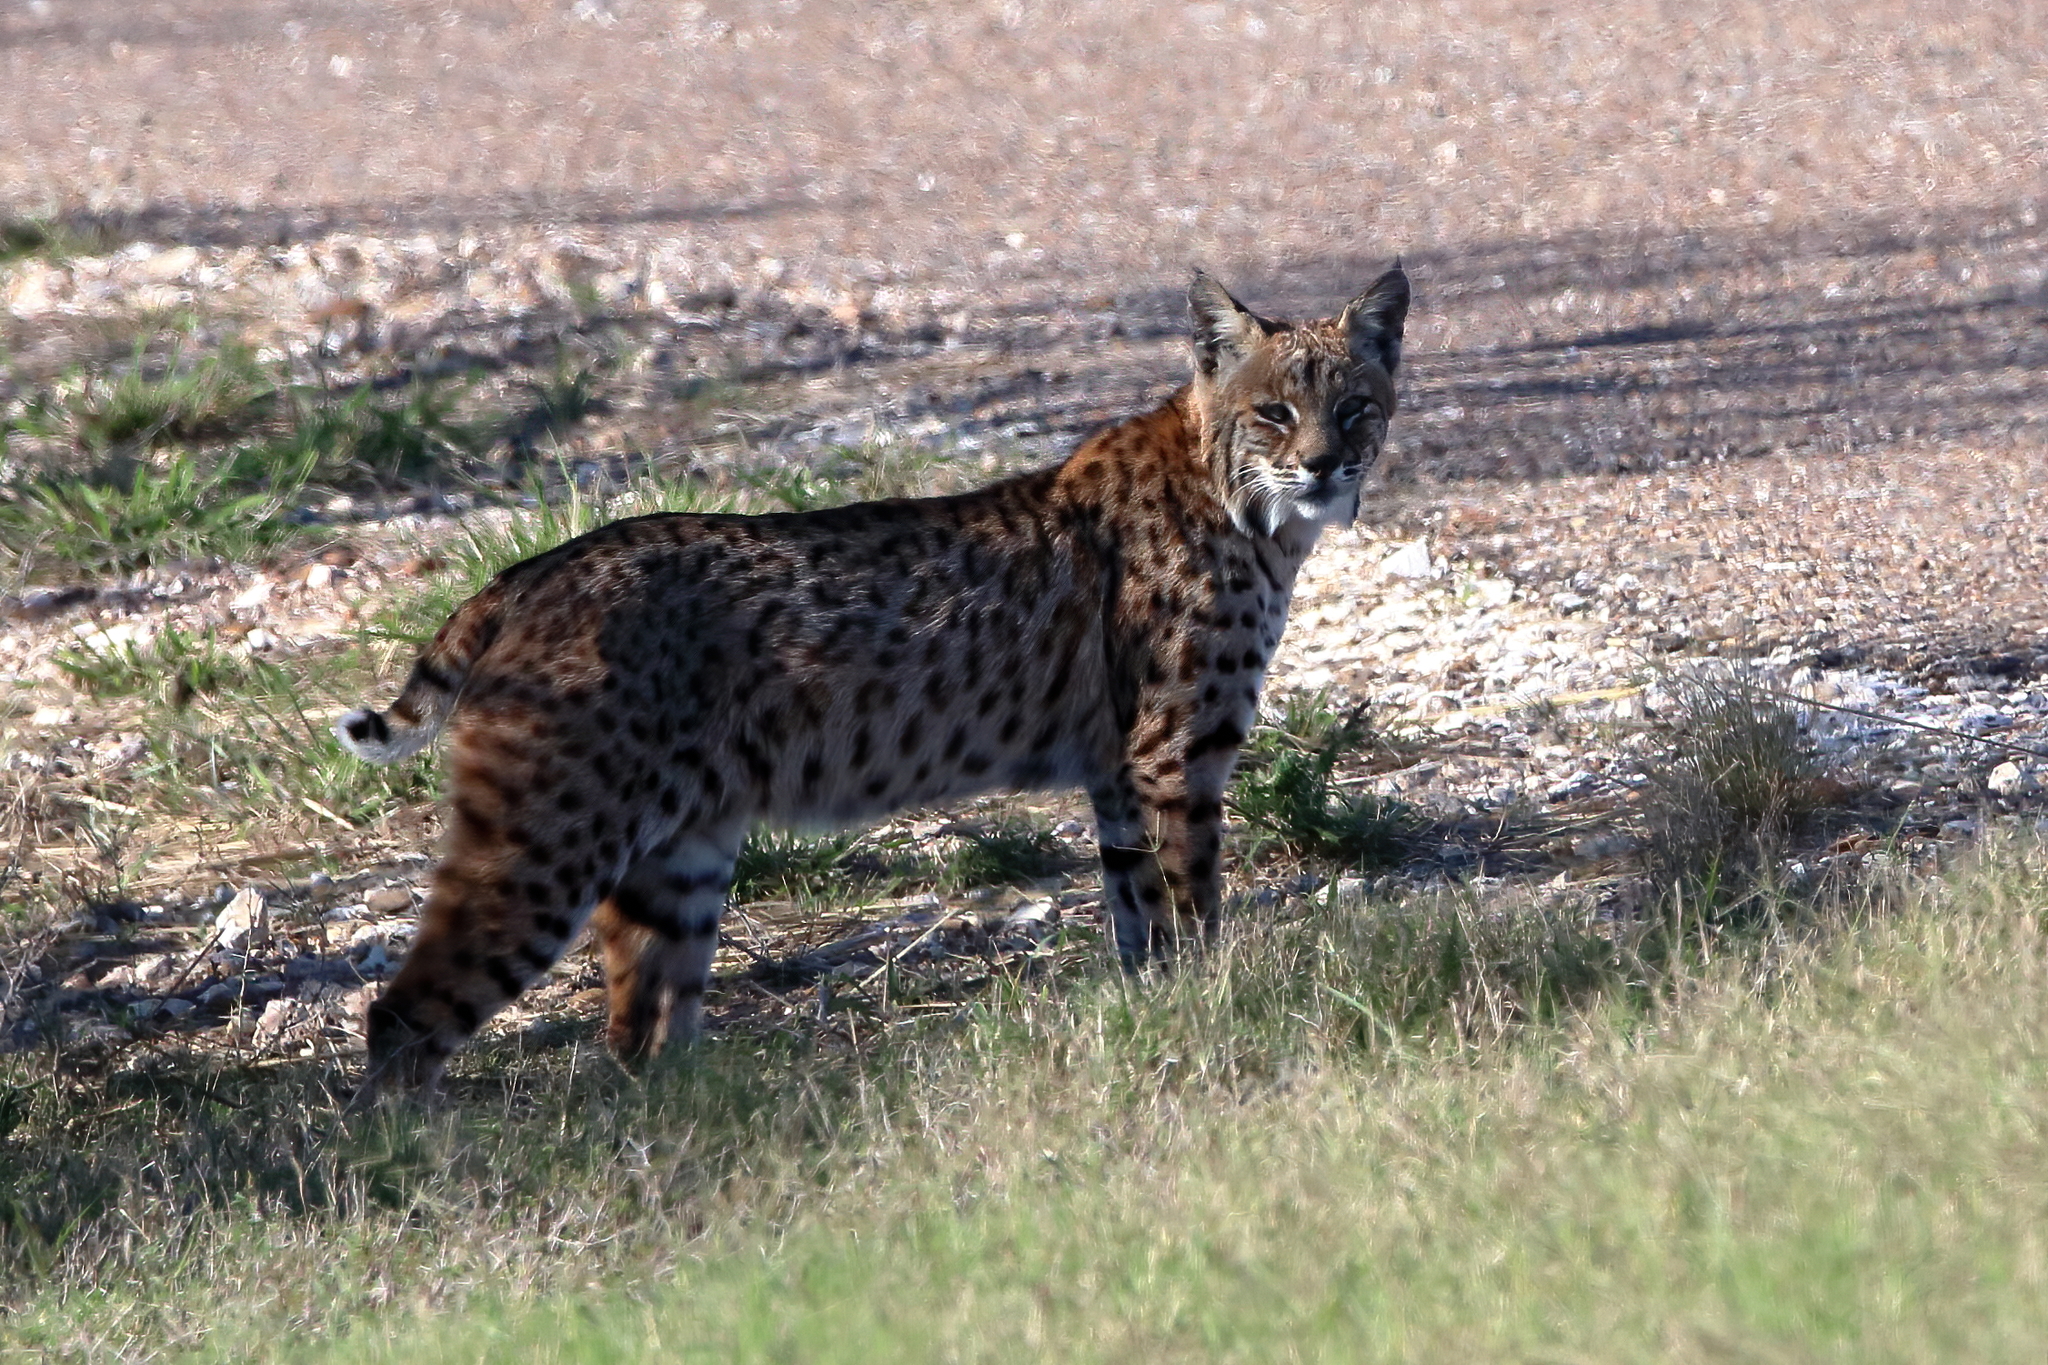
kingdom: Animalia
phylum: Chordata
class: Mammalia
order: Carnivora
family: Felidae
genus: Lynx
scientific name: Lynx rufus
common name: Bobcat
